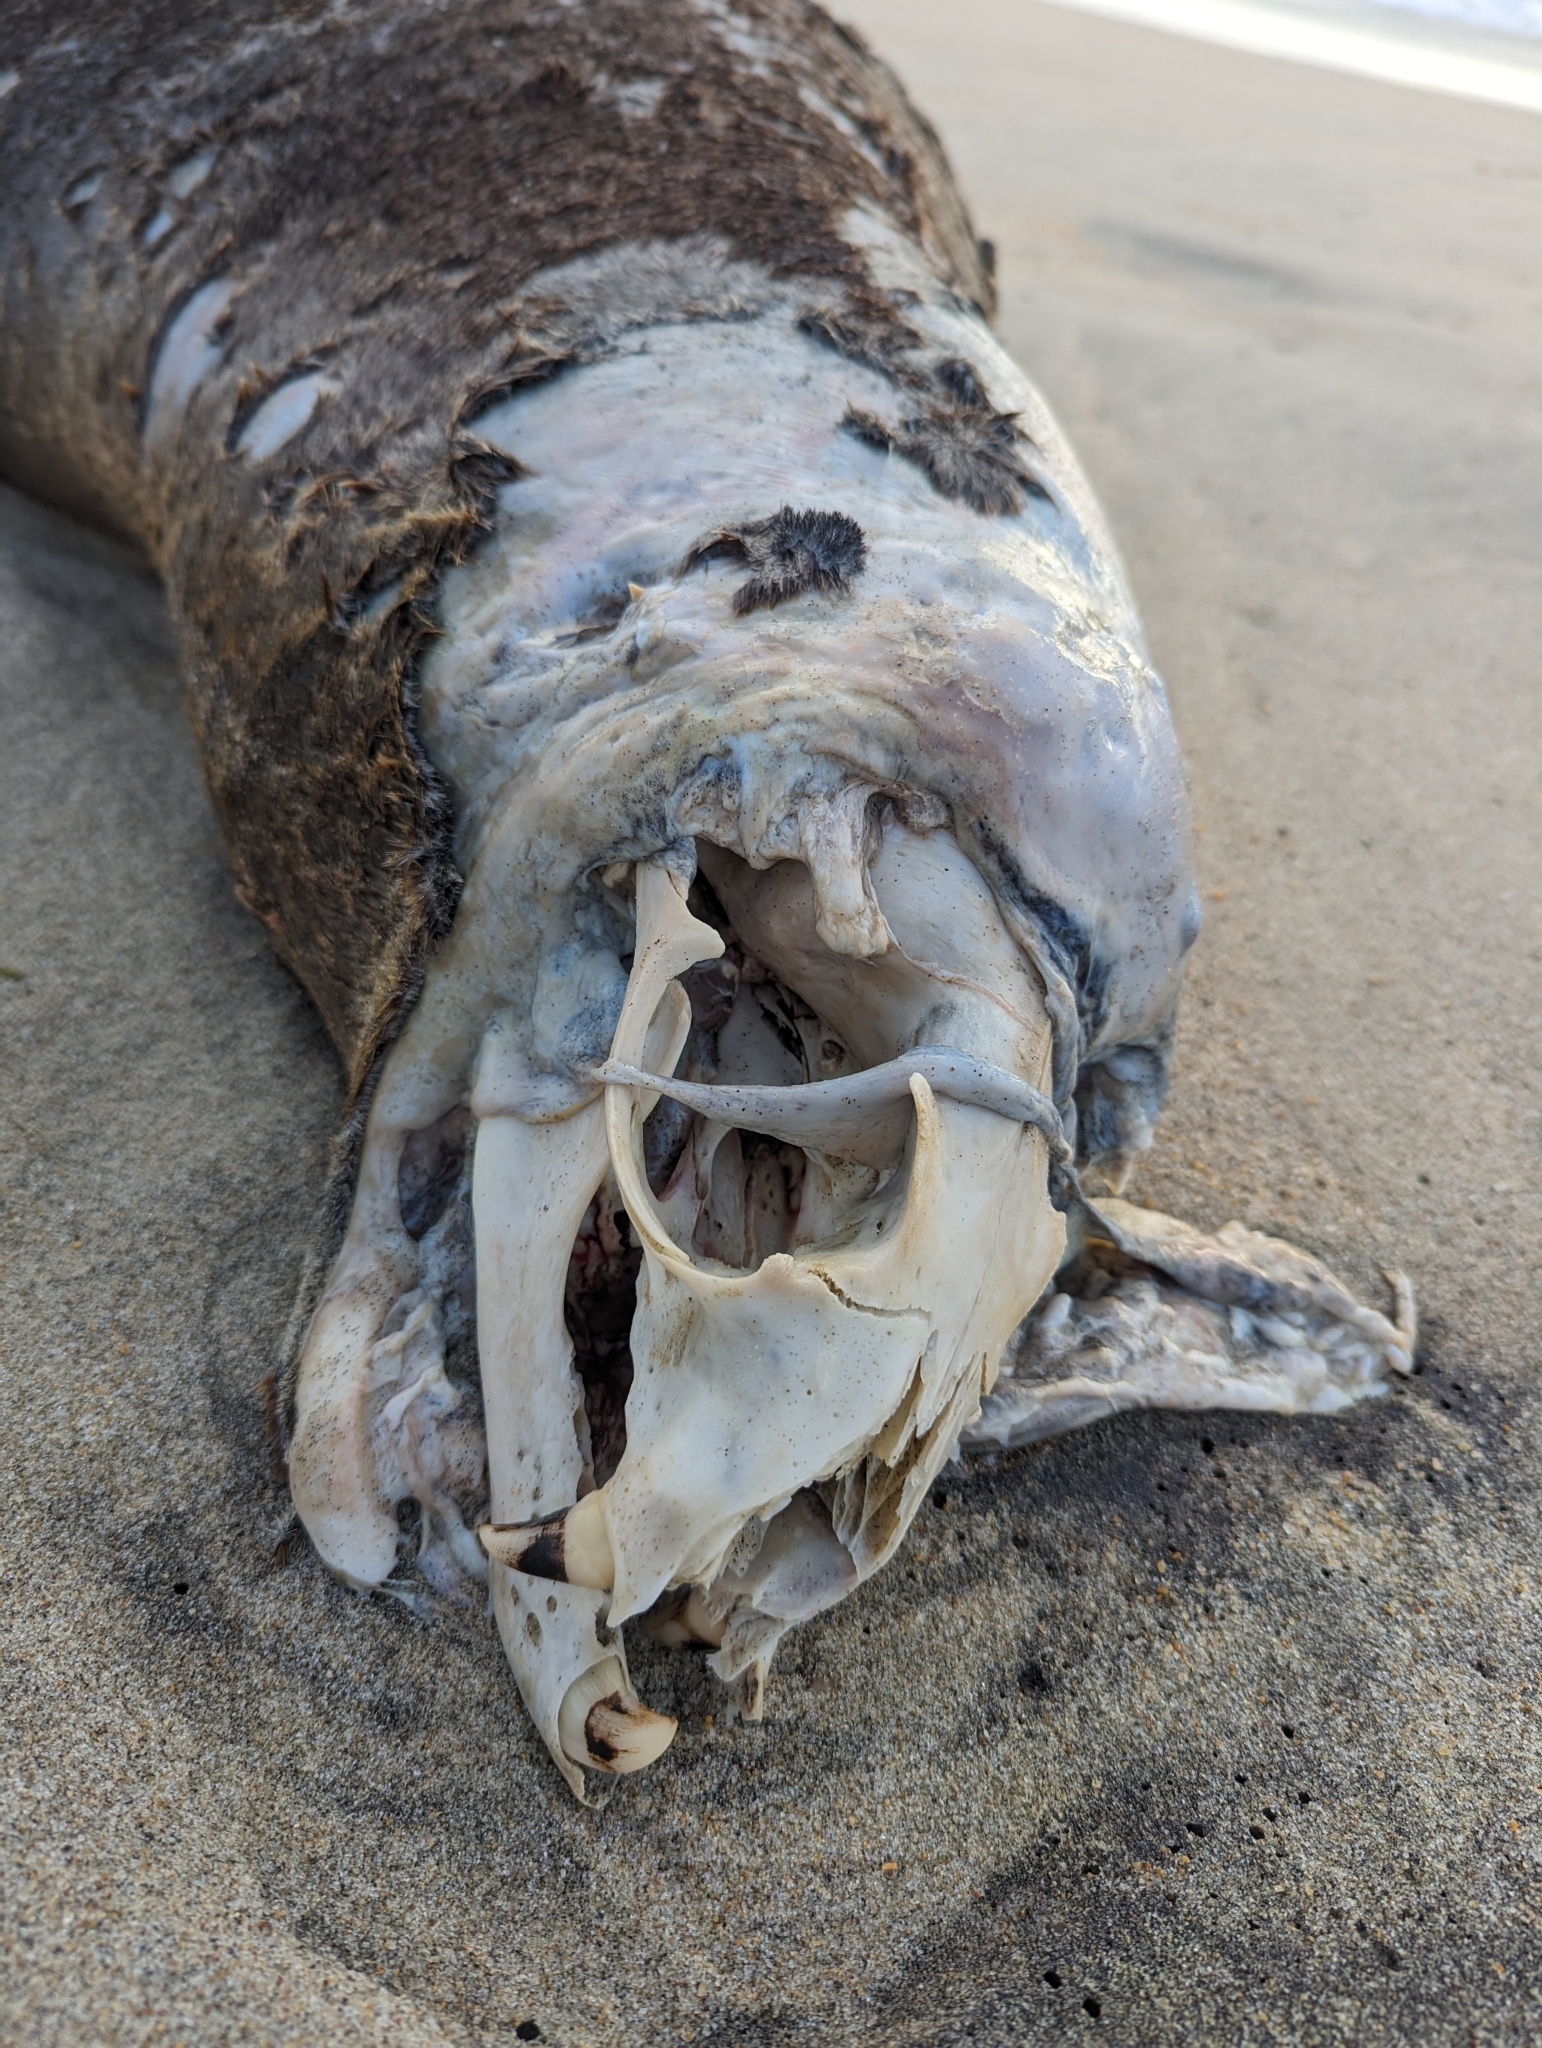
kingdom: Animalia
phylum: Chordata
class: Mammalia
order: Carnivora
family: Otariidae
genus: Zalophus
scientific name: Zalophus californianus
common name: California sea lion
